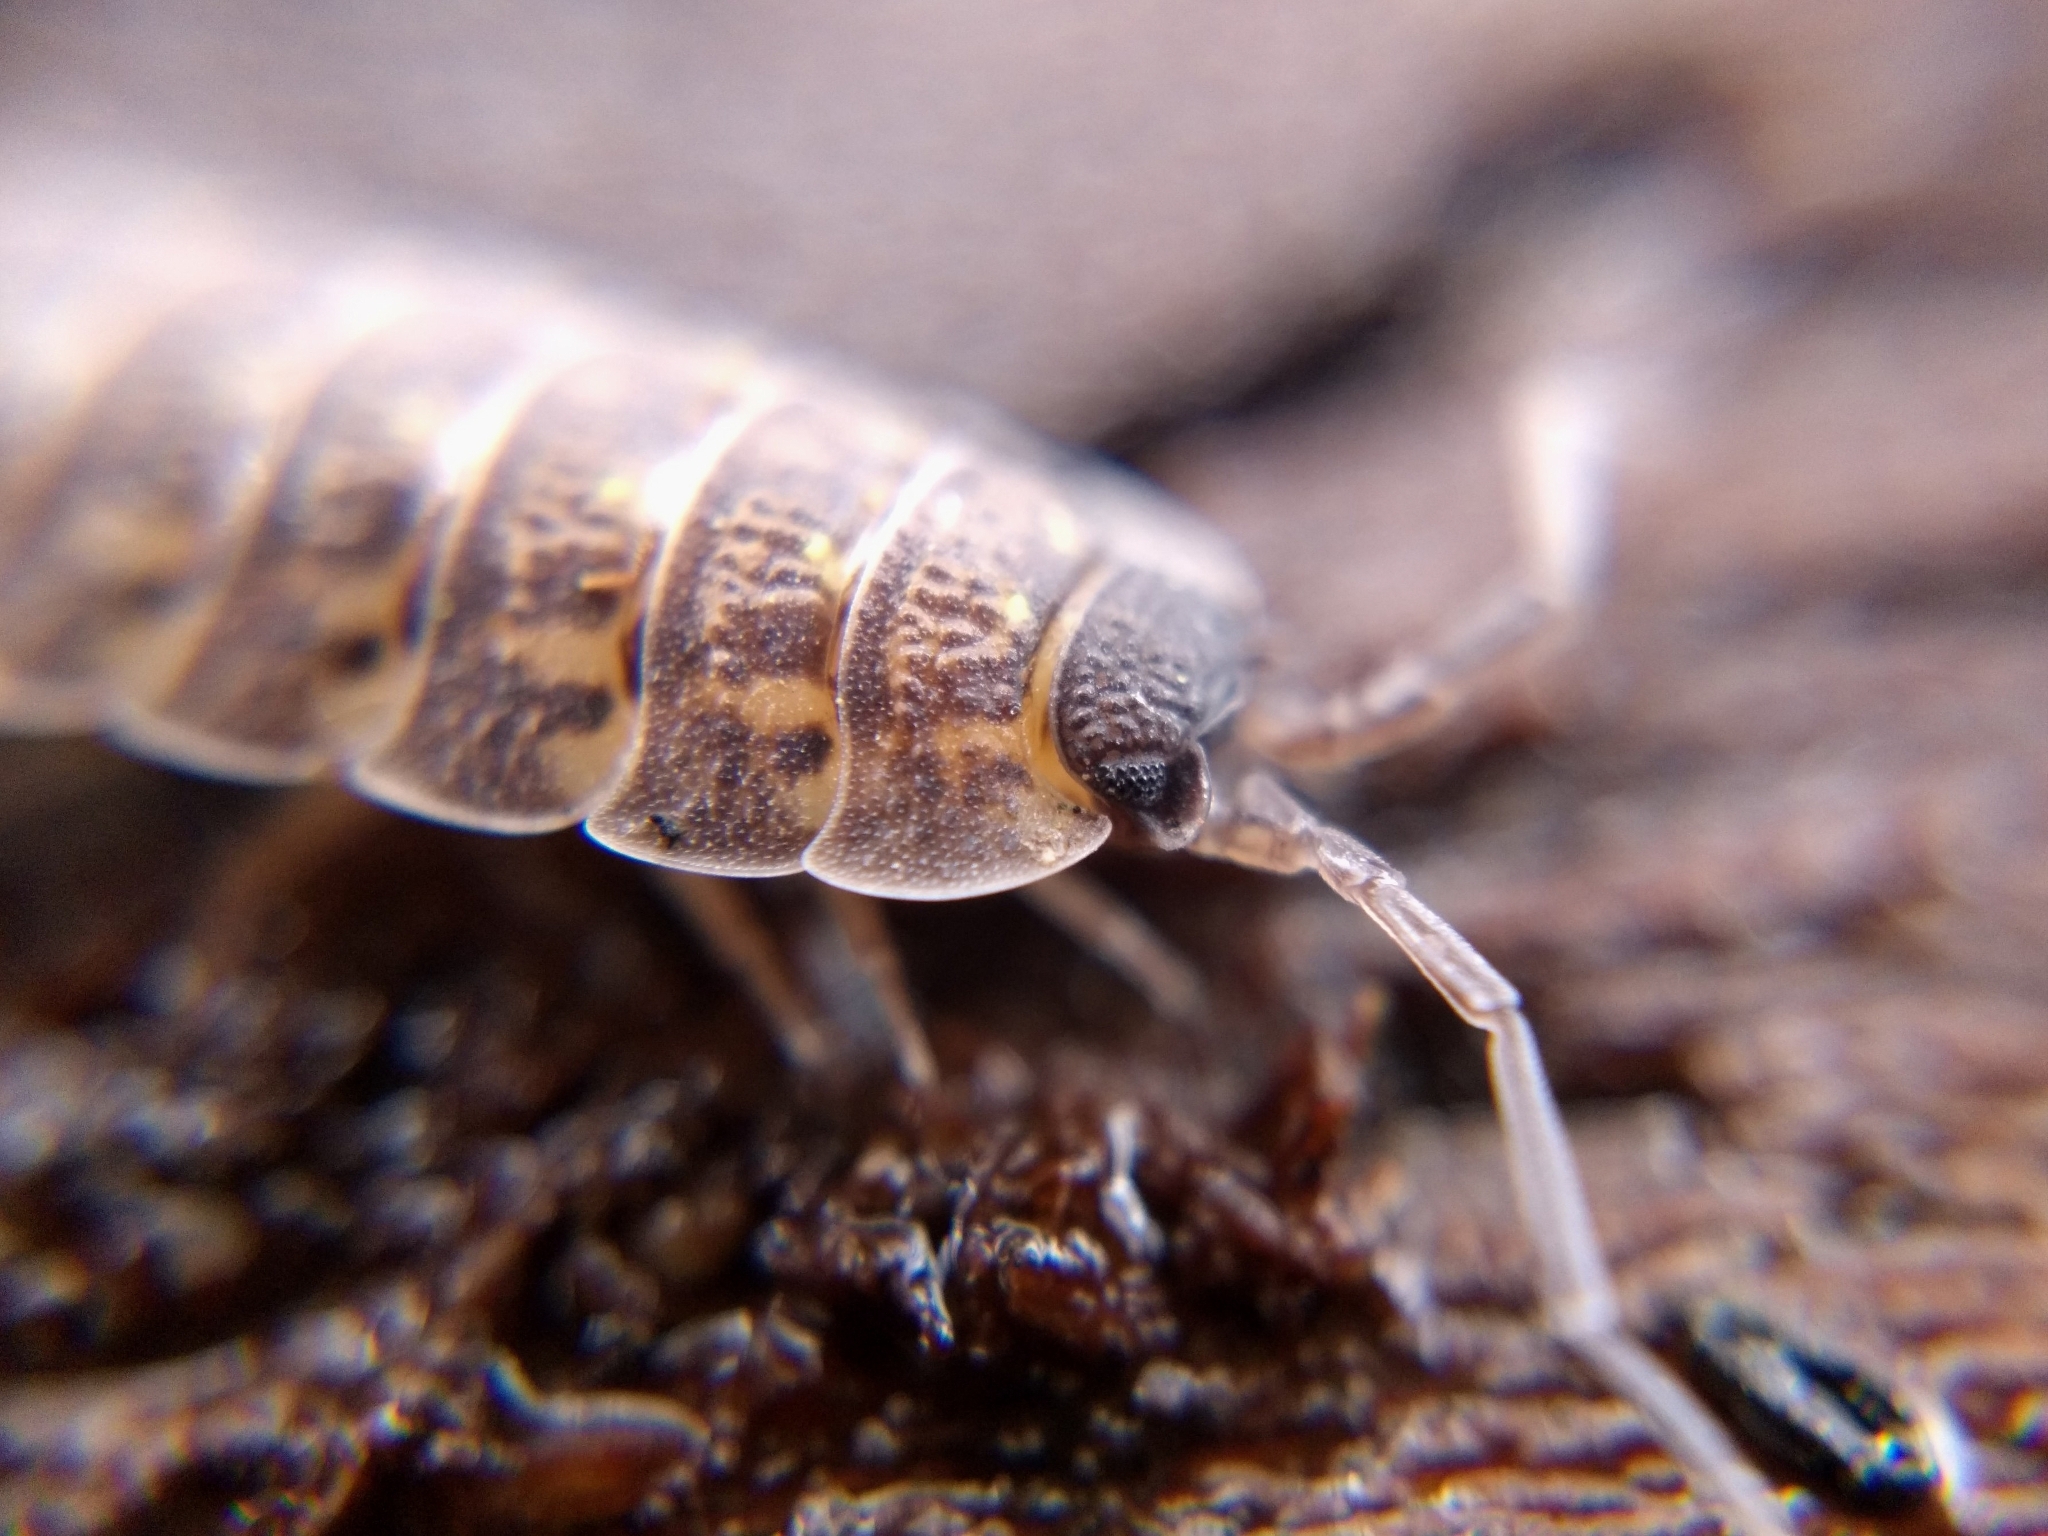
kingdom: Animalia
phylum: Arthropoda
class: Malacostraca
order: Isopoda
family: Porcellionidae
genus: Porcellio
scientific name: Porcellio spinicornis
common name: Painted woodlouse
